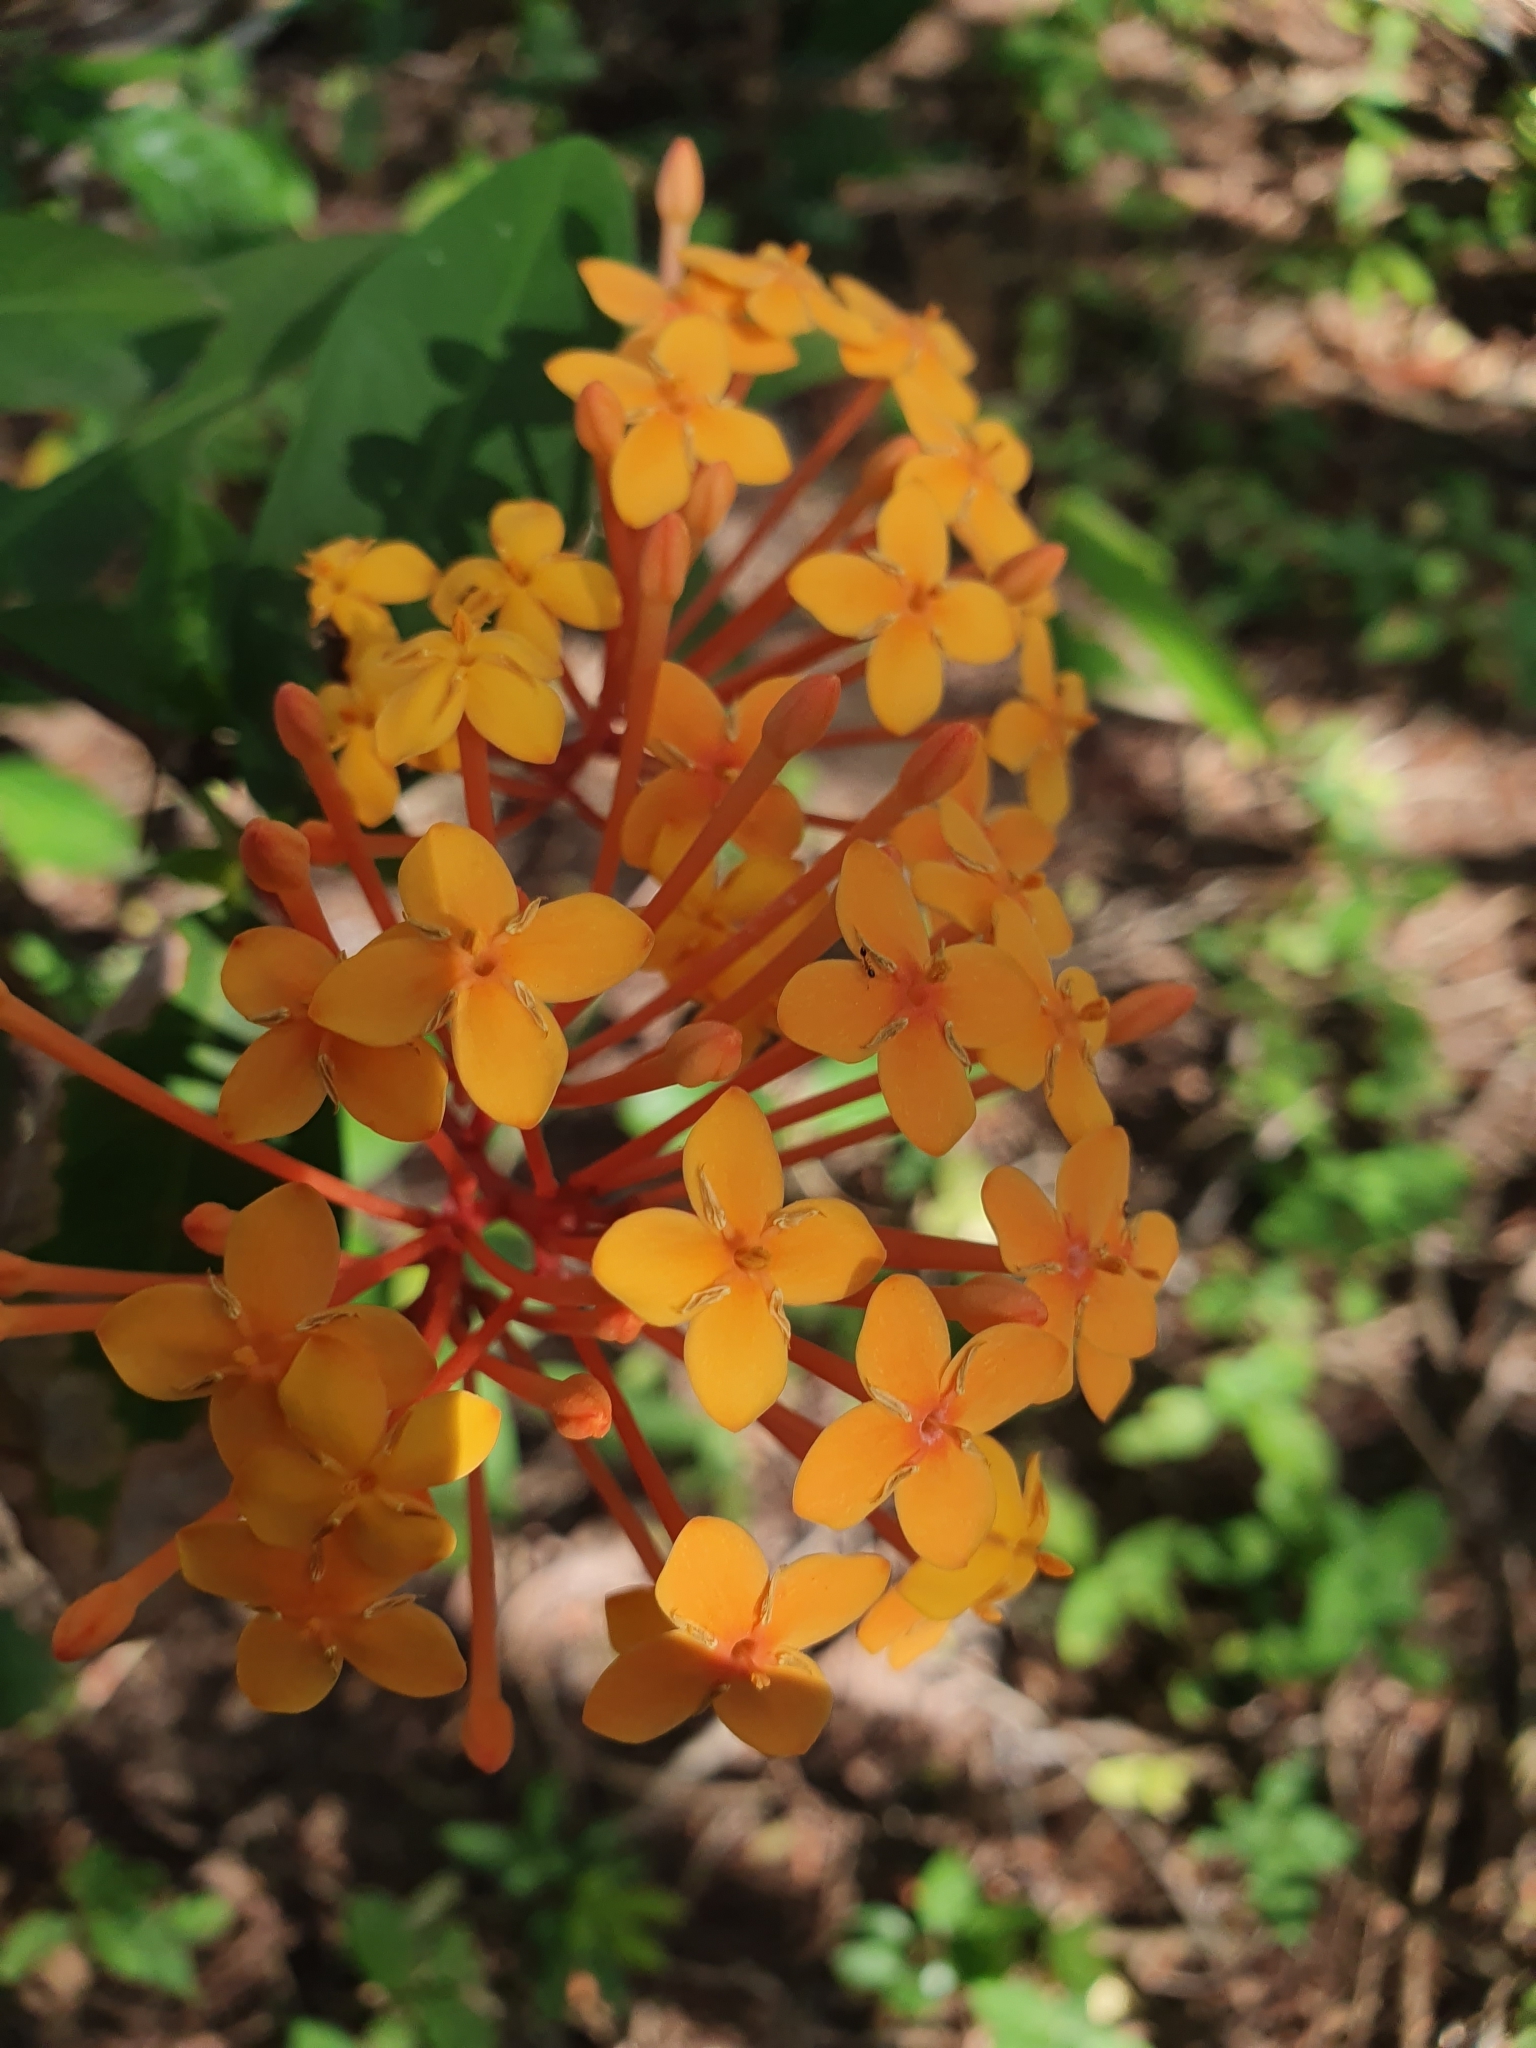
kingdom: Plantae
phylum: Tracheophyta
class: Magnoliopsida
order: Gentianales
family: Rubiaceae
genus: Ixora
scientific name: Ixora chinensis
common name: Chinese ixora
